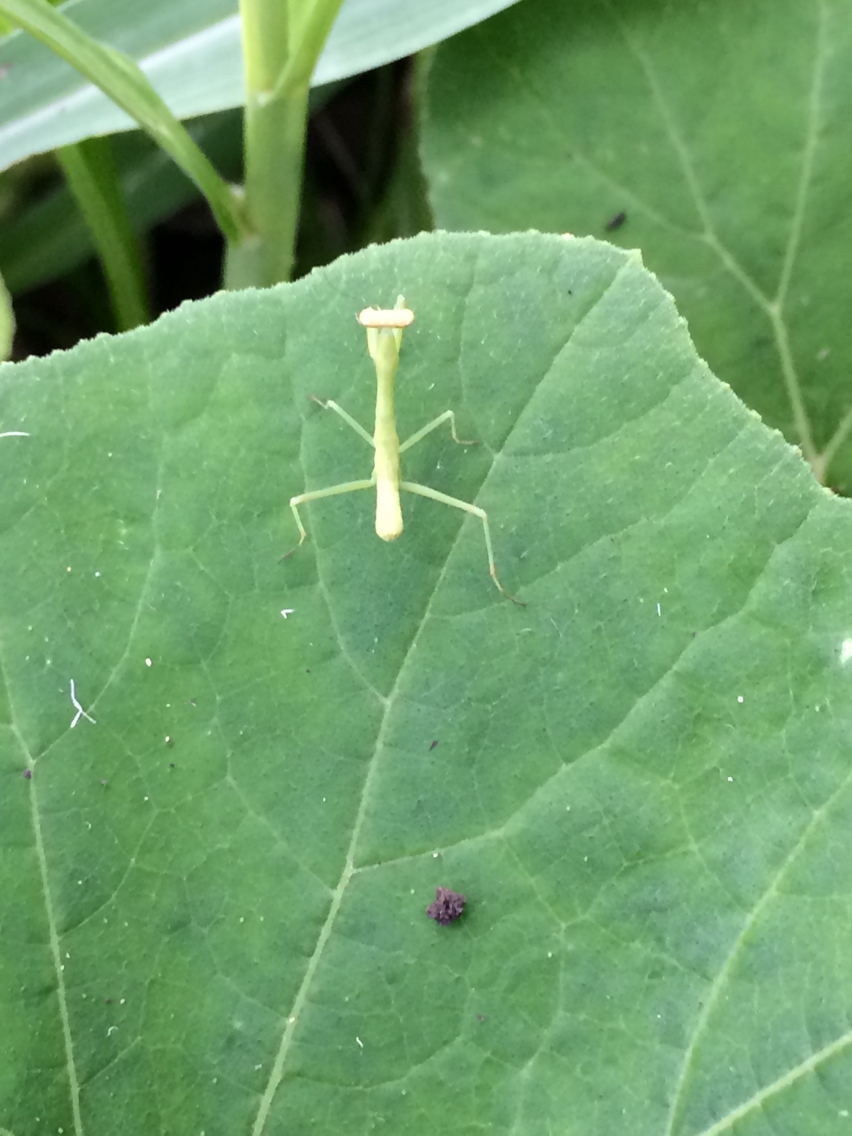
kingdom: Animalia
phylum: Arthropoda
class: Insecta
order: Mantodea
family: Mantidae
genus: Stagmomantis
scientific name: Stagmomantis carolina
